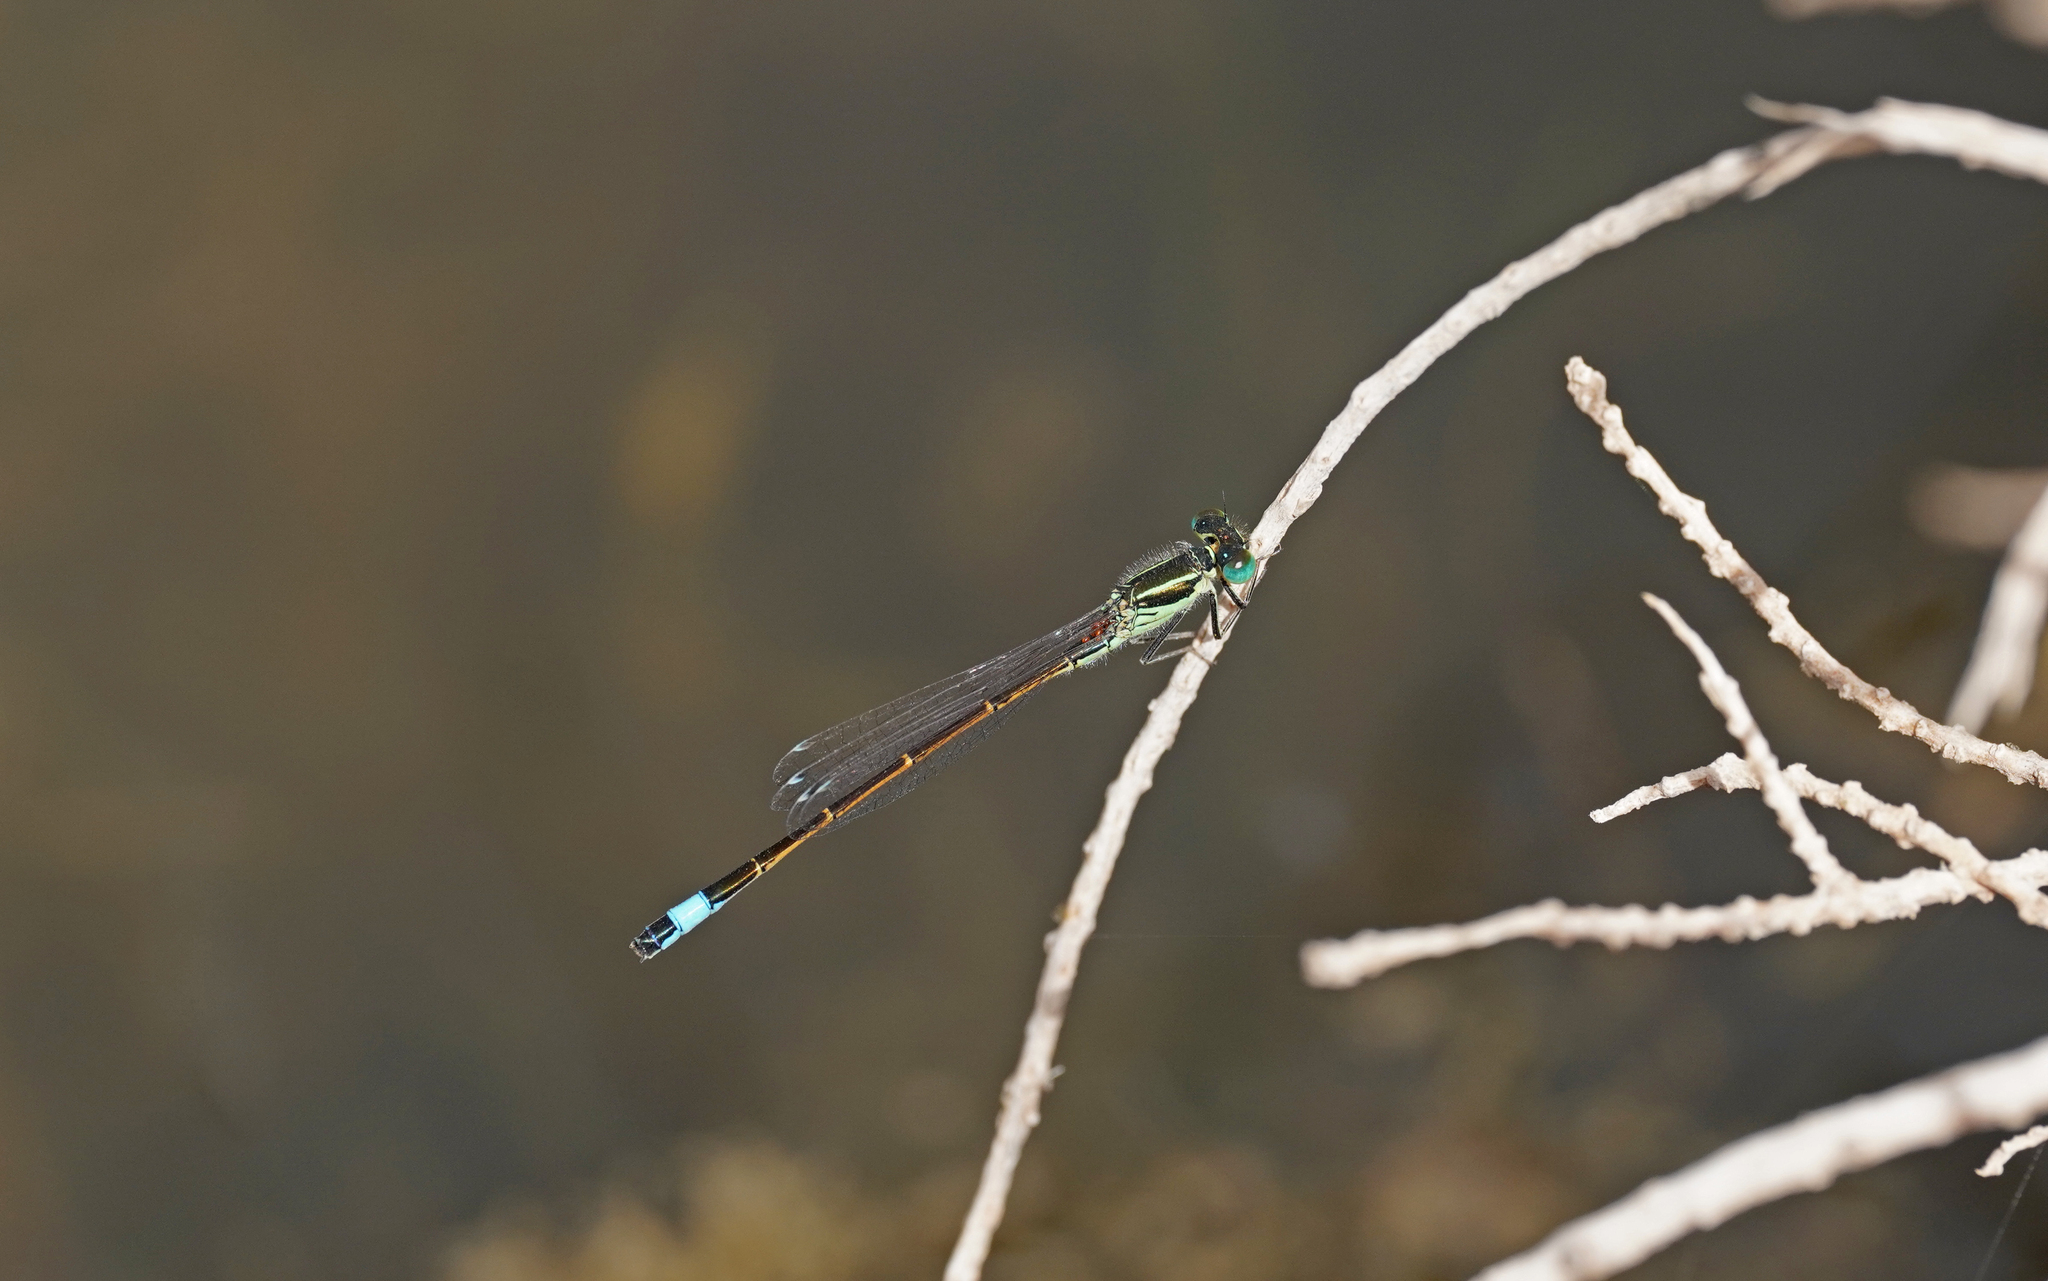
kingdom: Animalia
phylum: Arthropoda
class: Insecta
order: Odonata
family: Coenagrionidae
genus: Ischnura
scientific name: Ischnura saharensis
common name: Sahara bluetail
